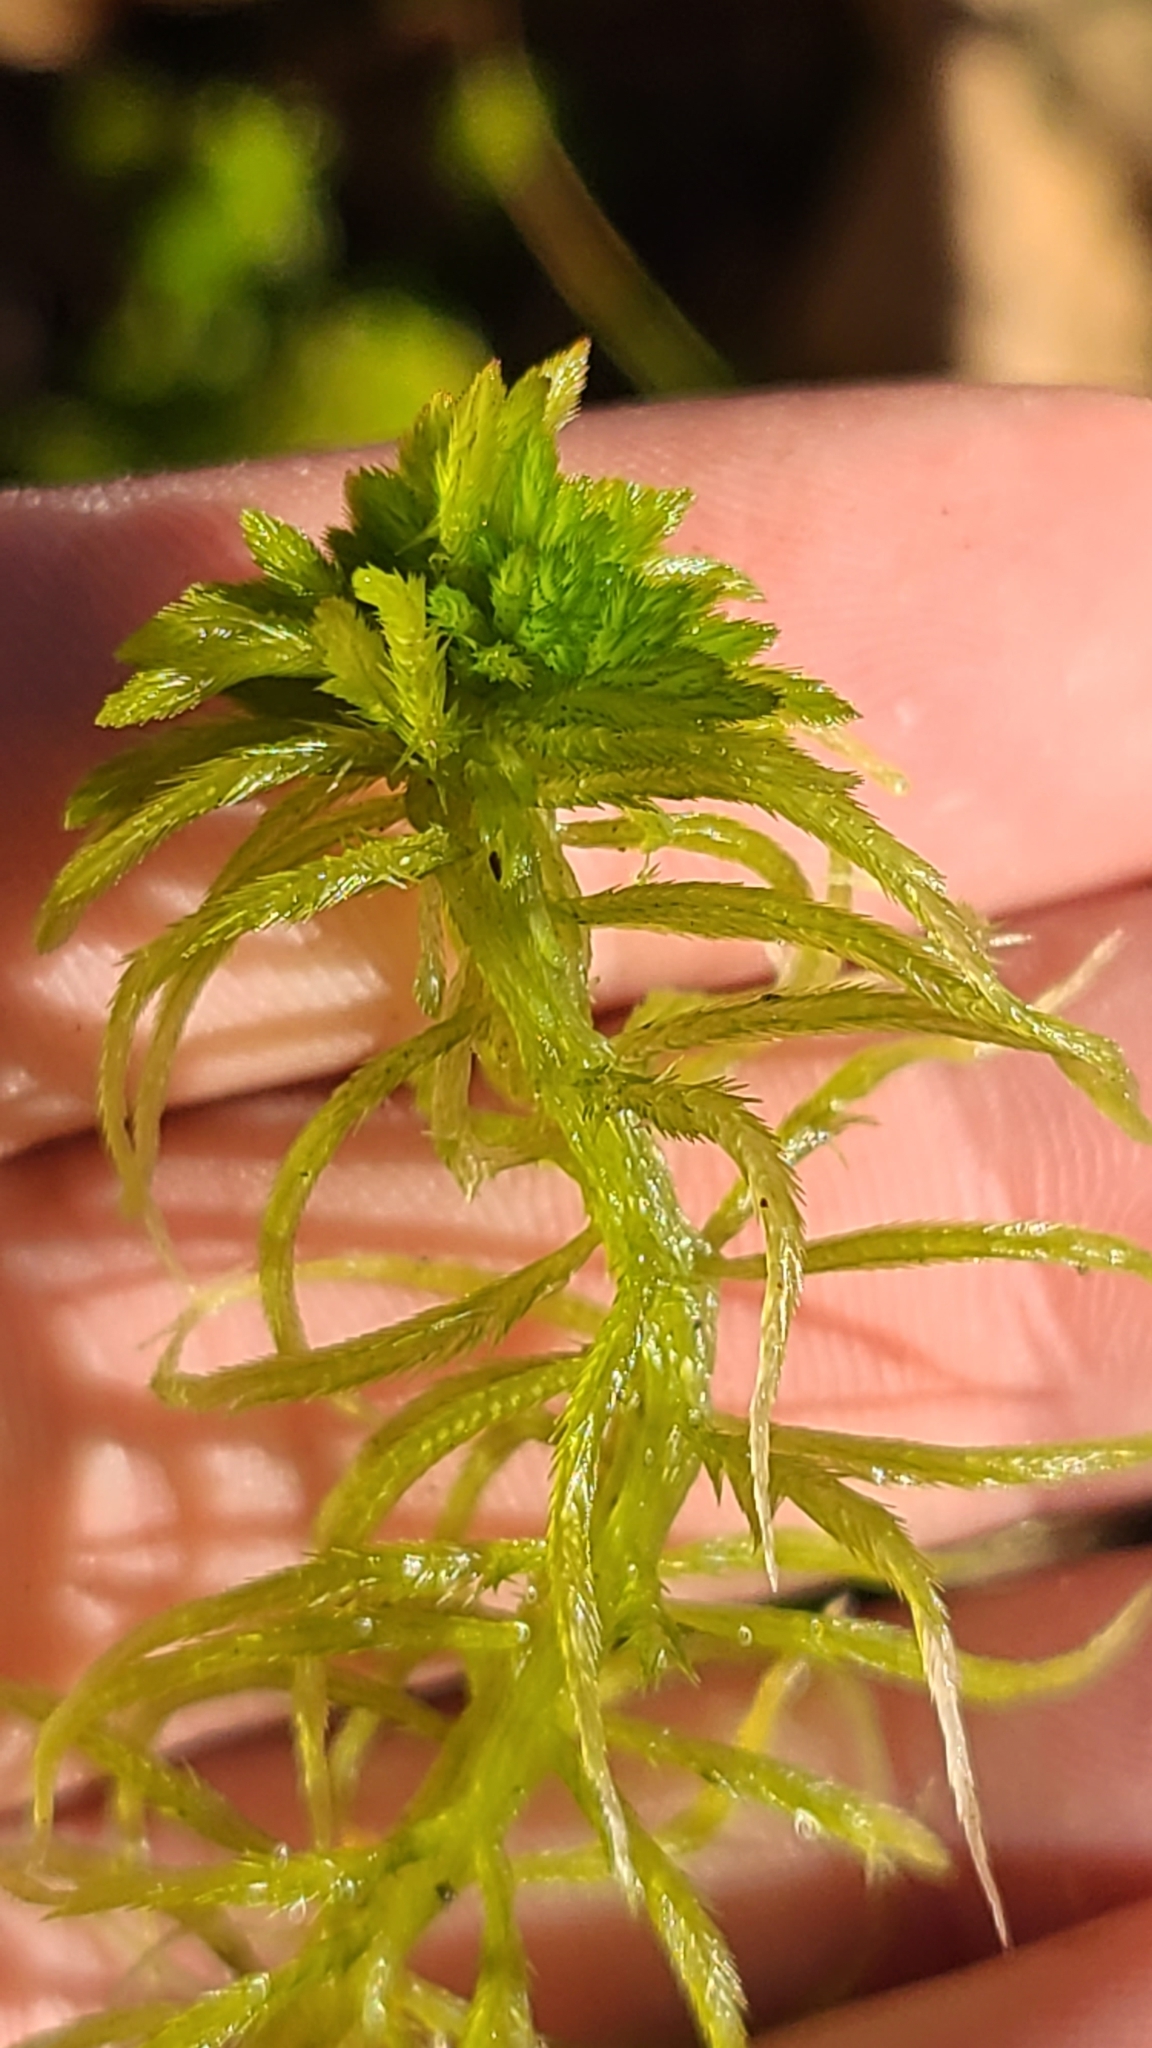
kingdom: Plantae
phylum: Bryophyta
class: Sphagnopsida
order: Sphagnales
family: Sphagnaceae
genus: Sphagnum
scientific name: Sphagnum recurvum
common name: Recurved peatmoss
